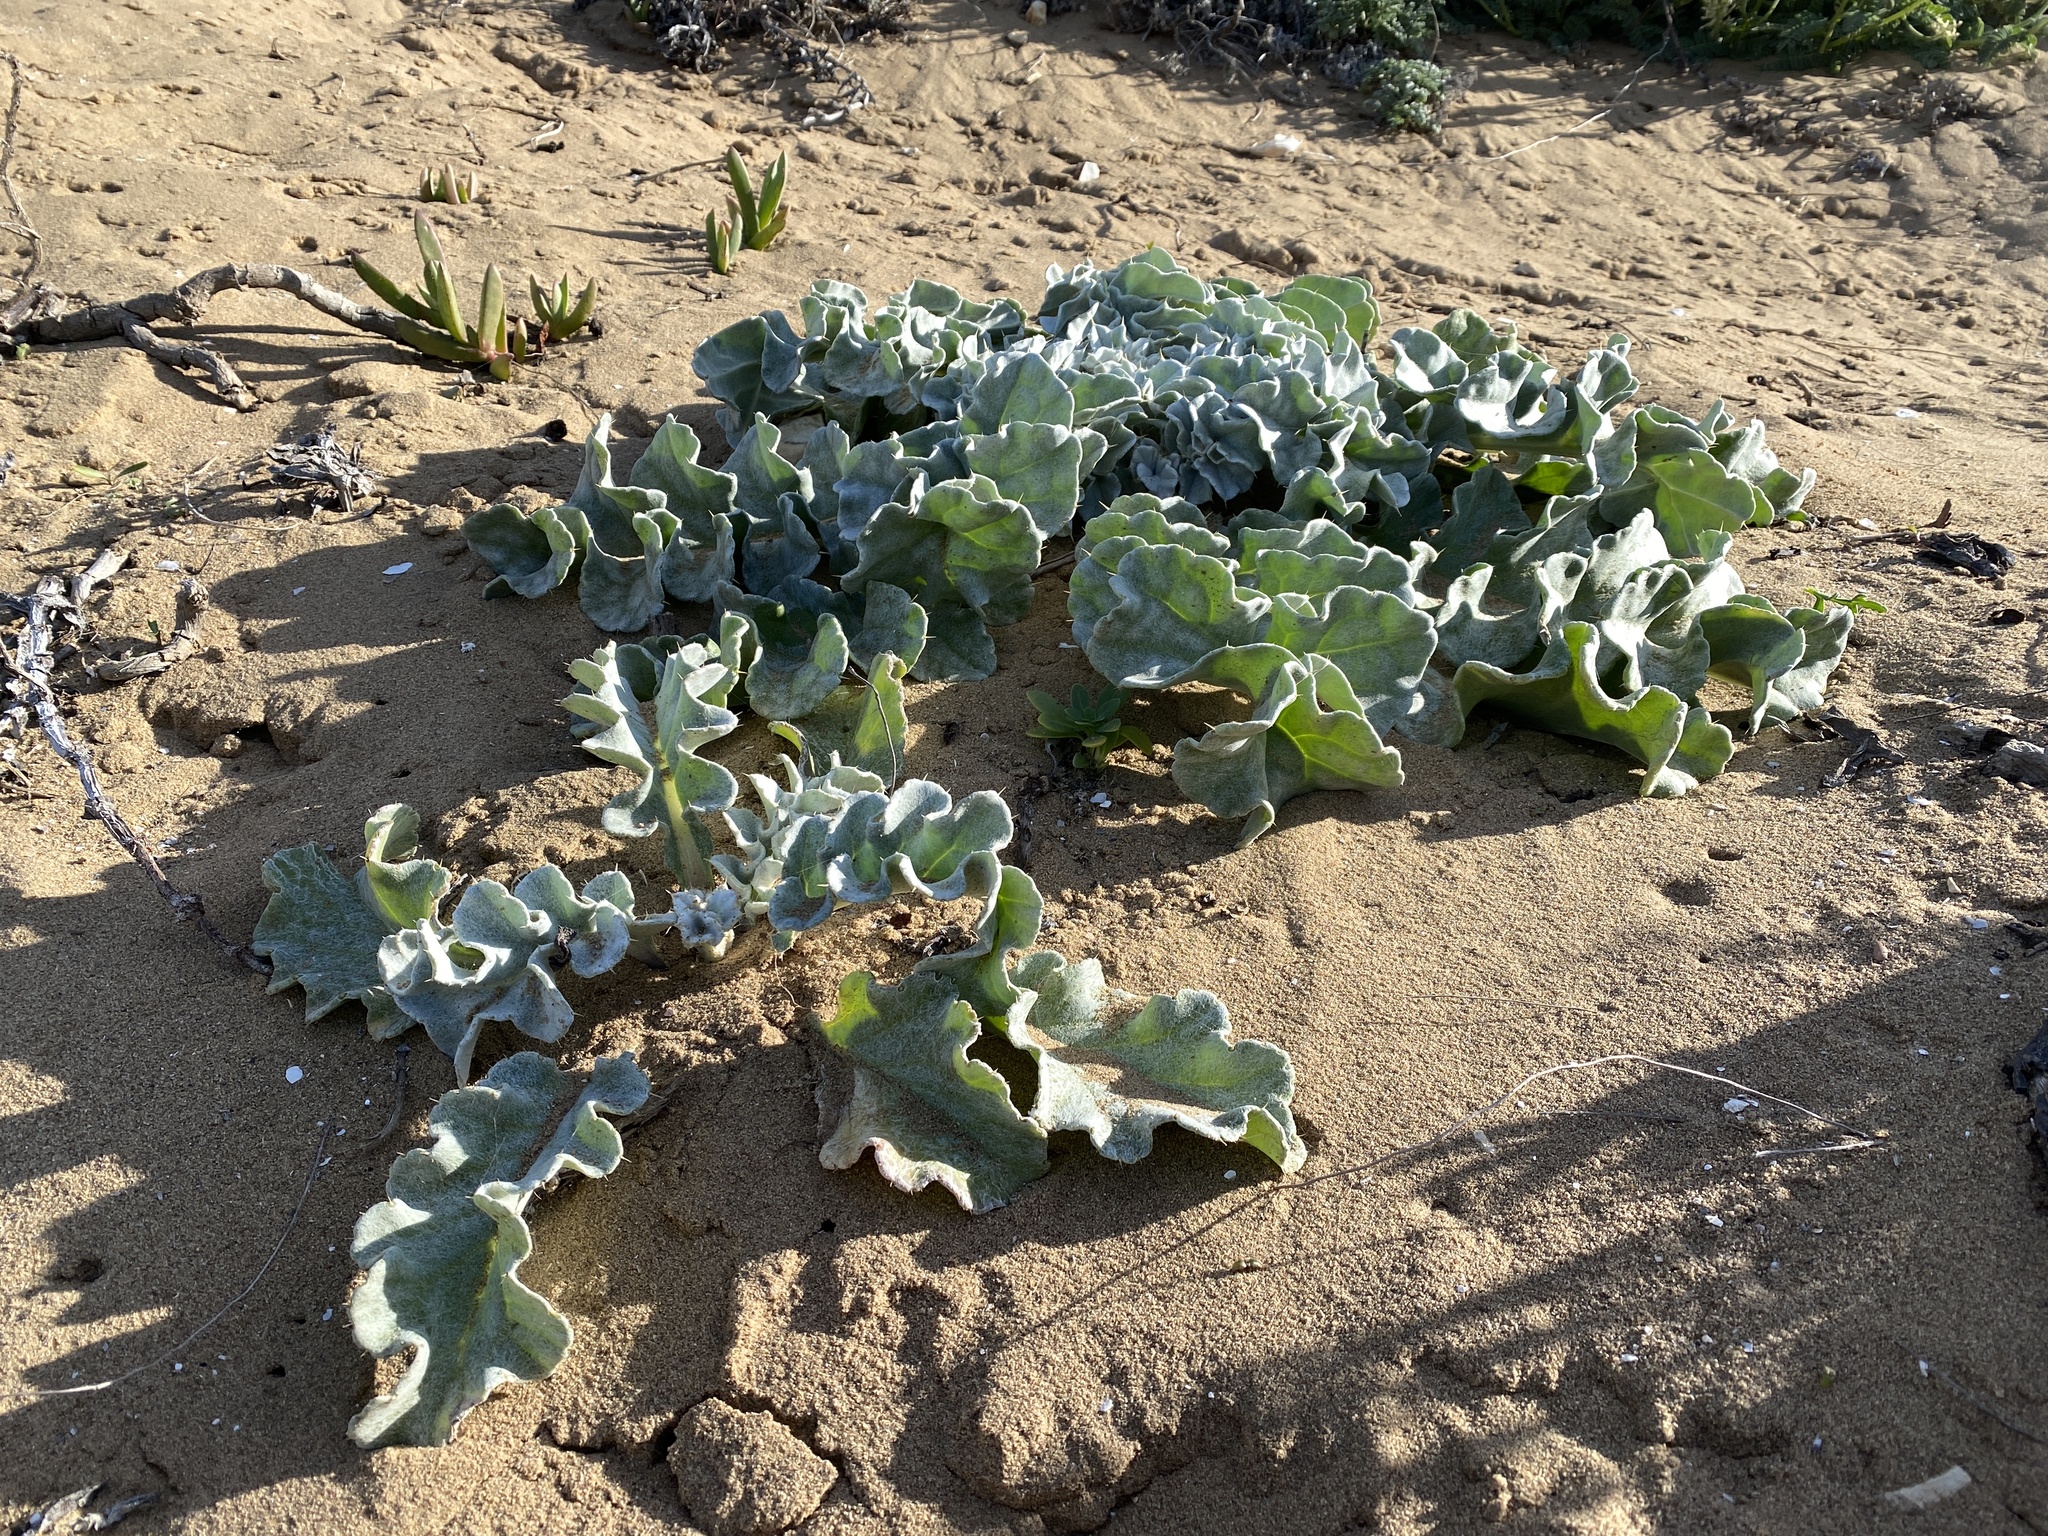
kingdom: Plantae
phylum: Tracheophyta
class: Magnoliopsida
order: Asterales
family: Asteraceae
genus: Cirsium
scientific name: Cirsium rhothophilum
